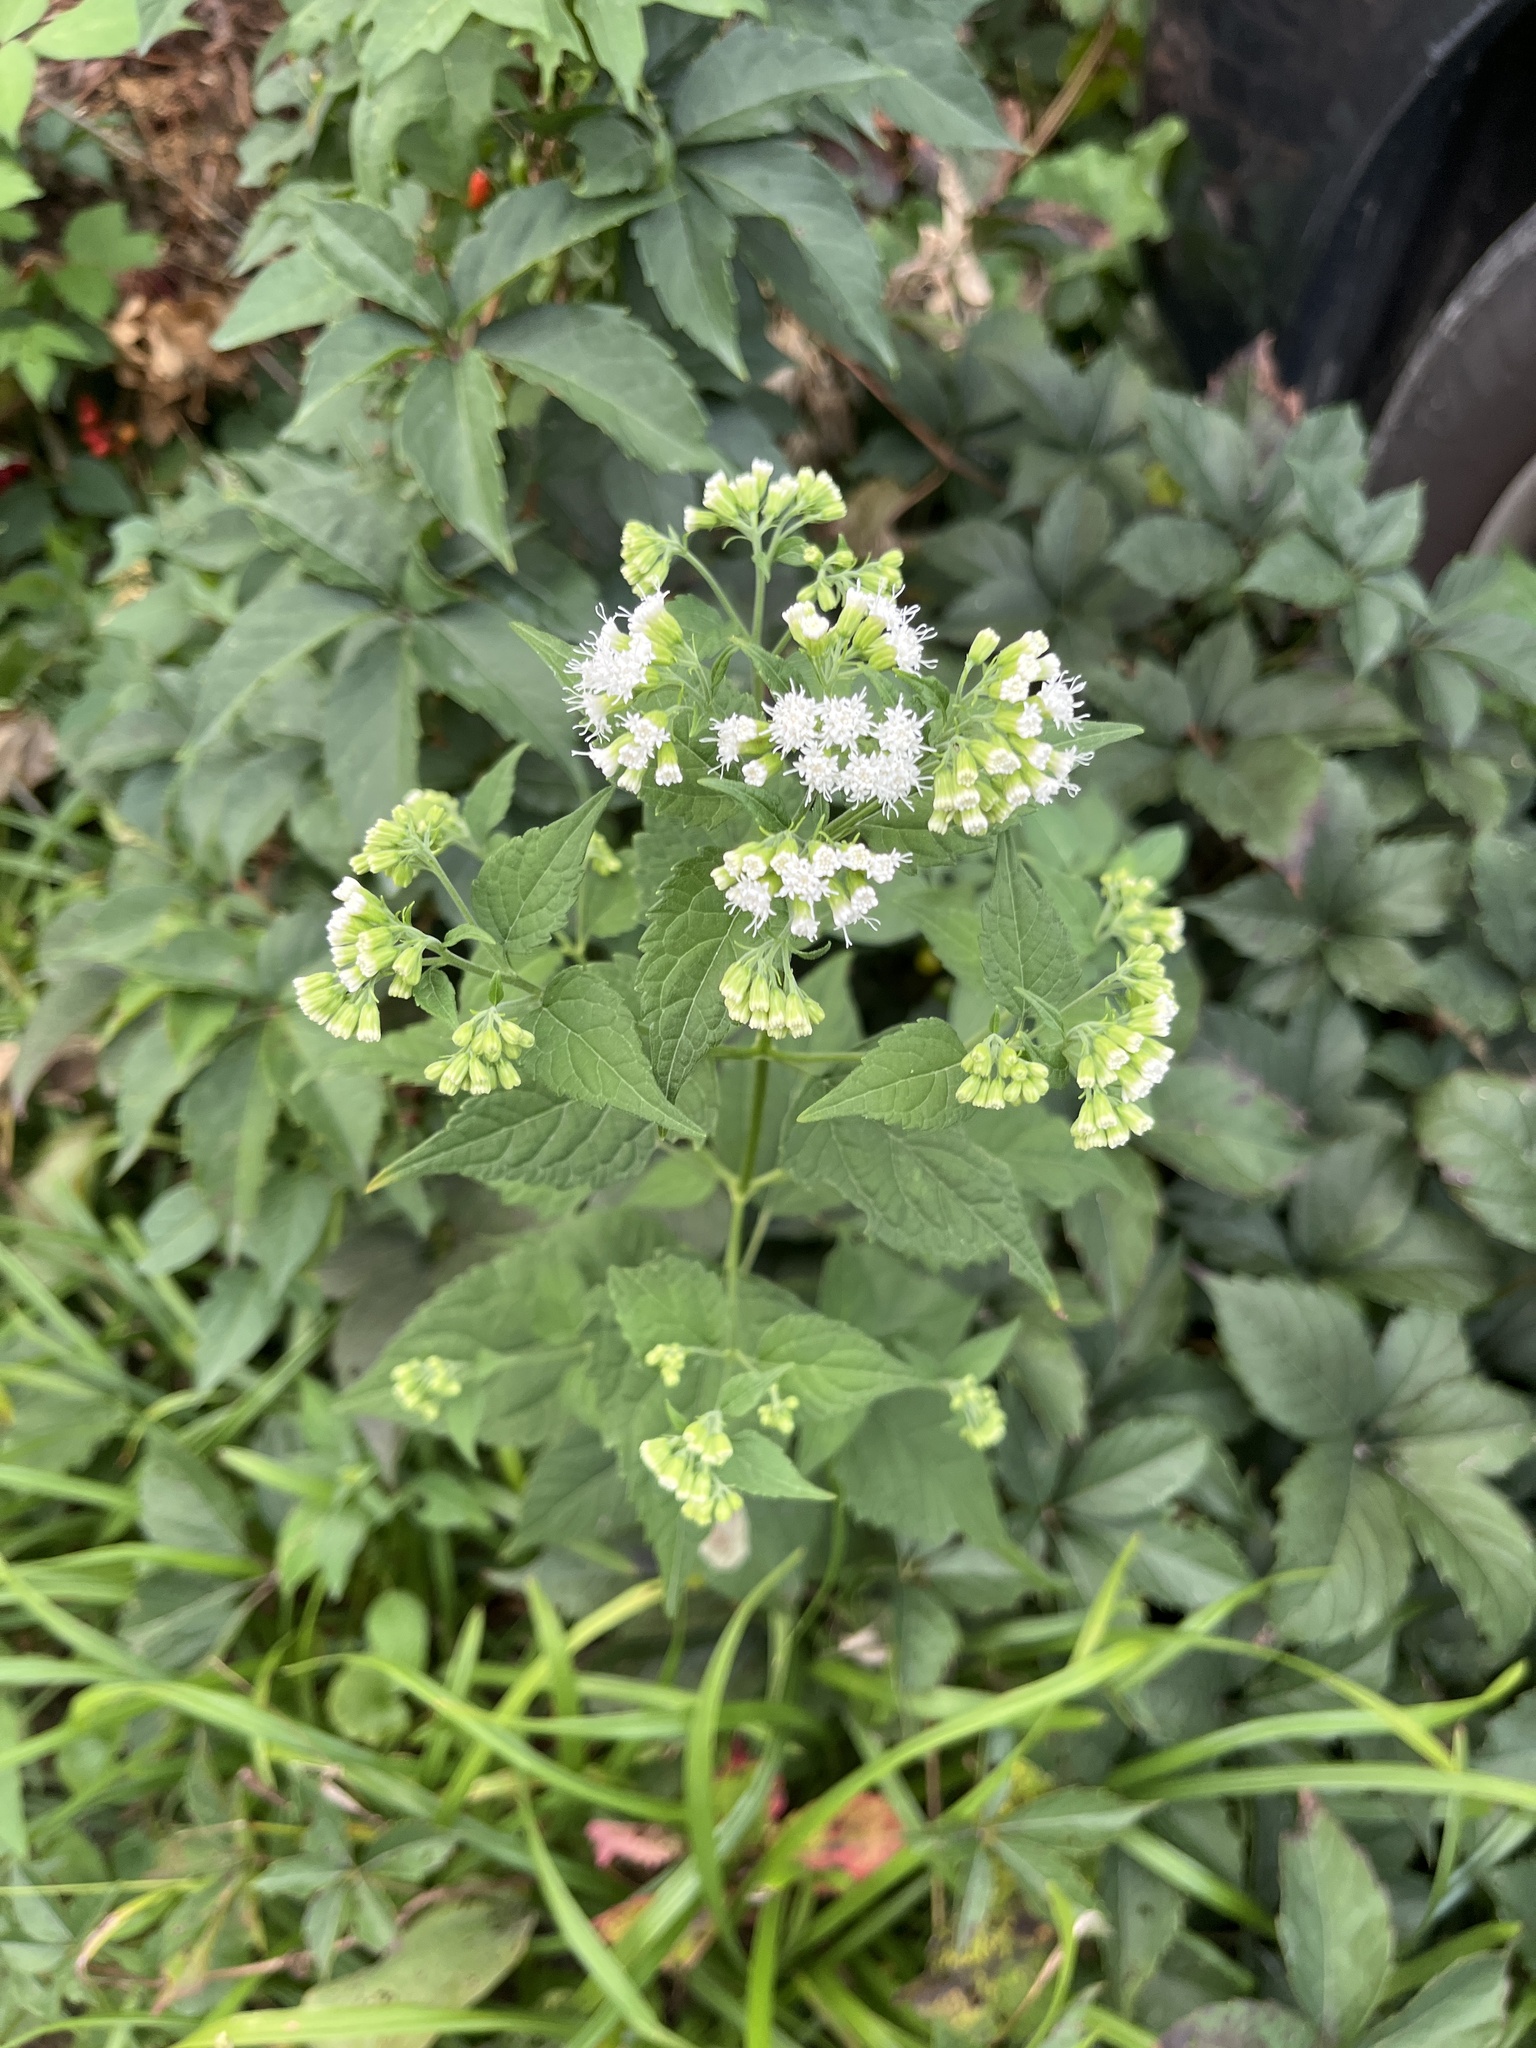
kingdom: Plantae
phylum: Tracheophyta
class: Magnoliopsida
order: Asterales
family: Asteraceae
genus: Ageratina
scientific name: Ageratina altissima
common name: White snakeroot
